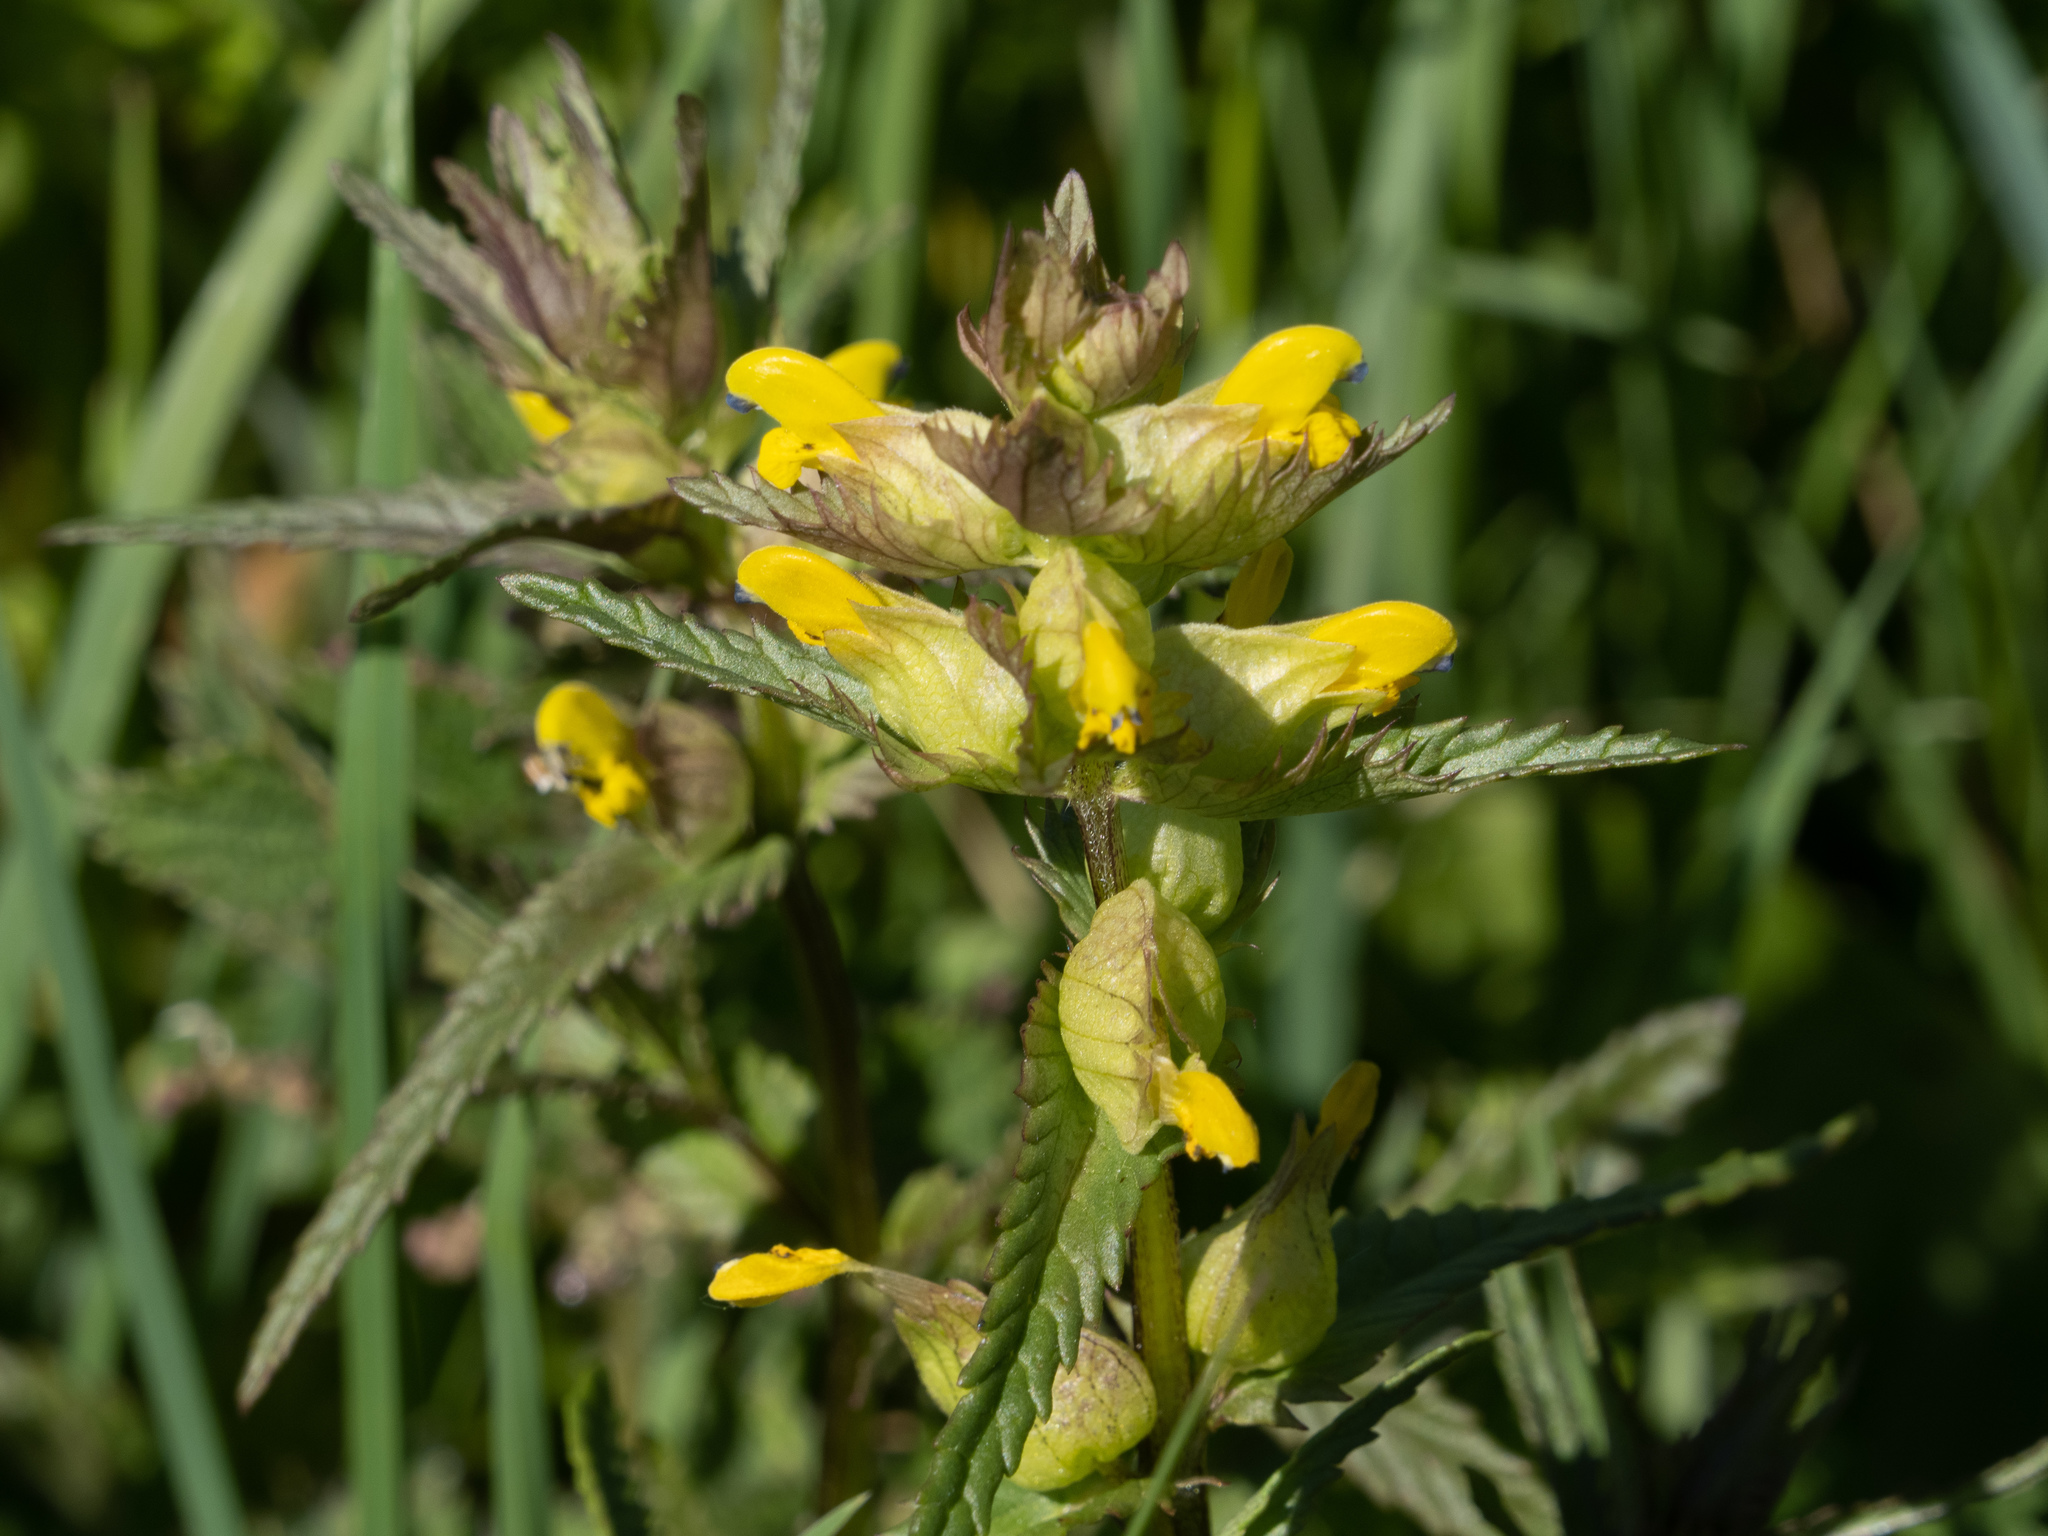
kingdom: Plantae
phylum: Tracheophyta
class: Magnoliopsida
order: Lamiales
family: Orobanchaceae
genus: Rhinanthus
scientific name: Rhinanthus minor
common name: Yellow-rattle
